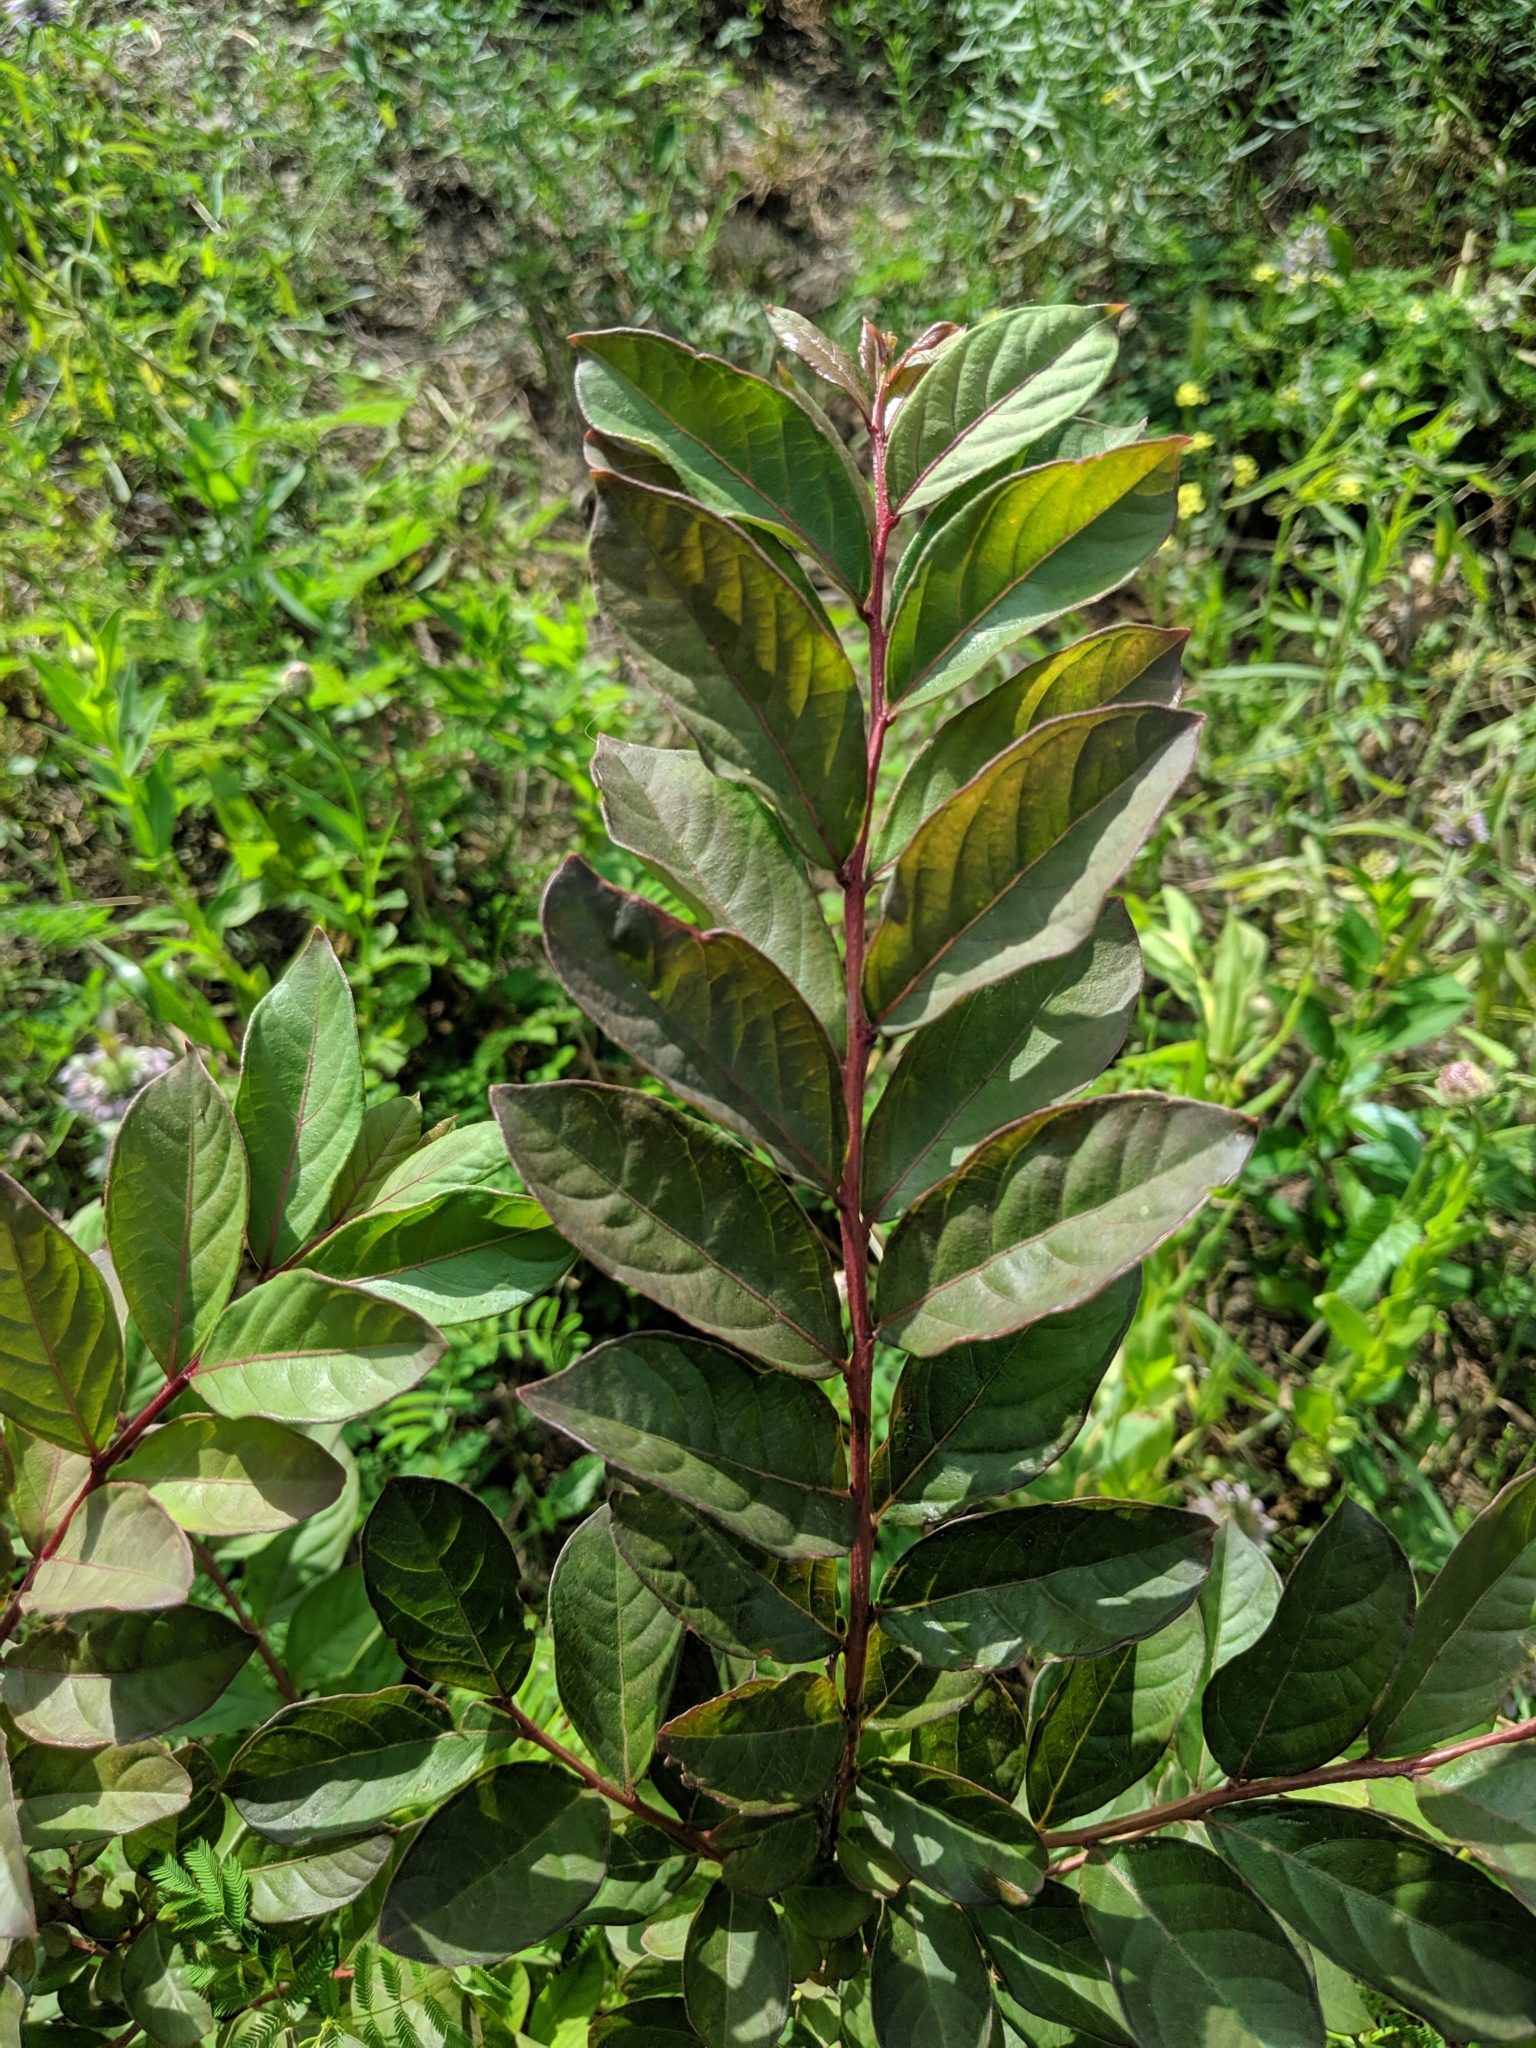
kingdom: Plantae
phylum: Tracheophyta
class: Magnoliopsida
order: Myrtales
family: Lythraceae
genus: Lagerstroemia
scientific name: Lagerstroemia indica
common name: Crape-myrtle
